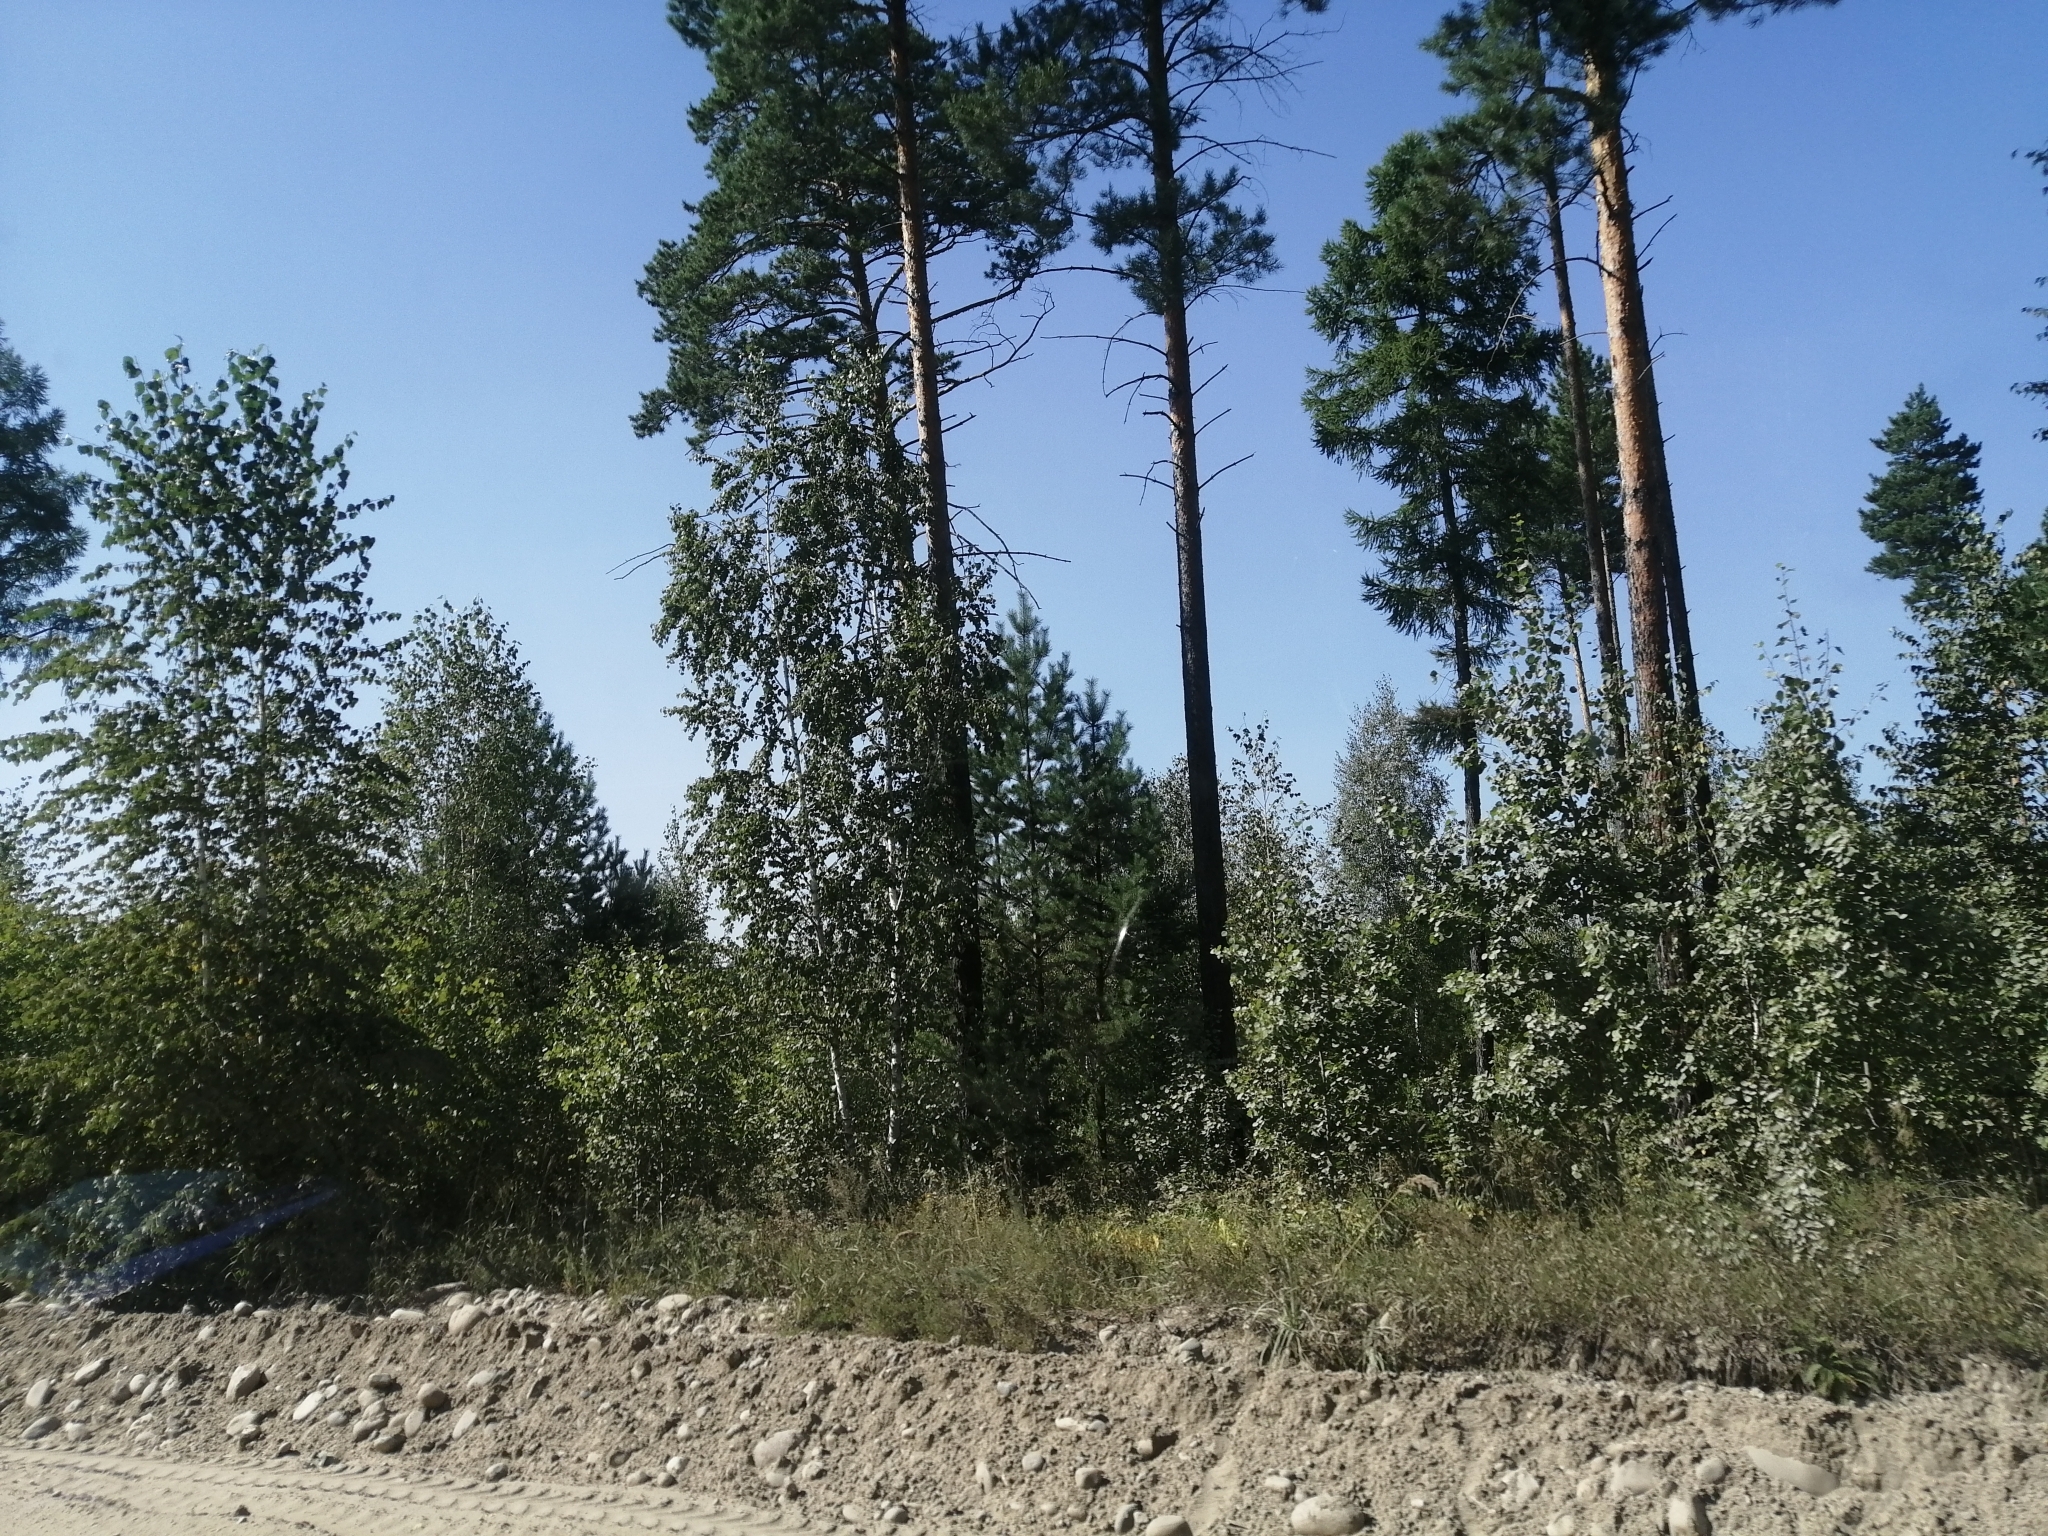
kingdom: Plantae
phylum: Tracheophyta
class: Pinopsida
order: Pinales
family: Pinaceae
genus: Pinus
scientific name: Pinus sylvestris
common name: Scots pine
